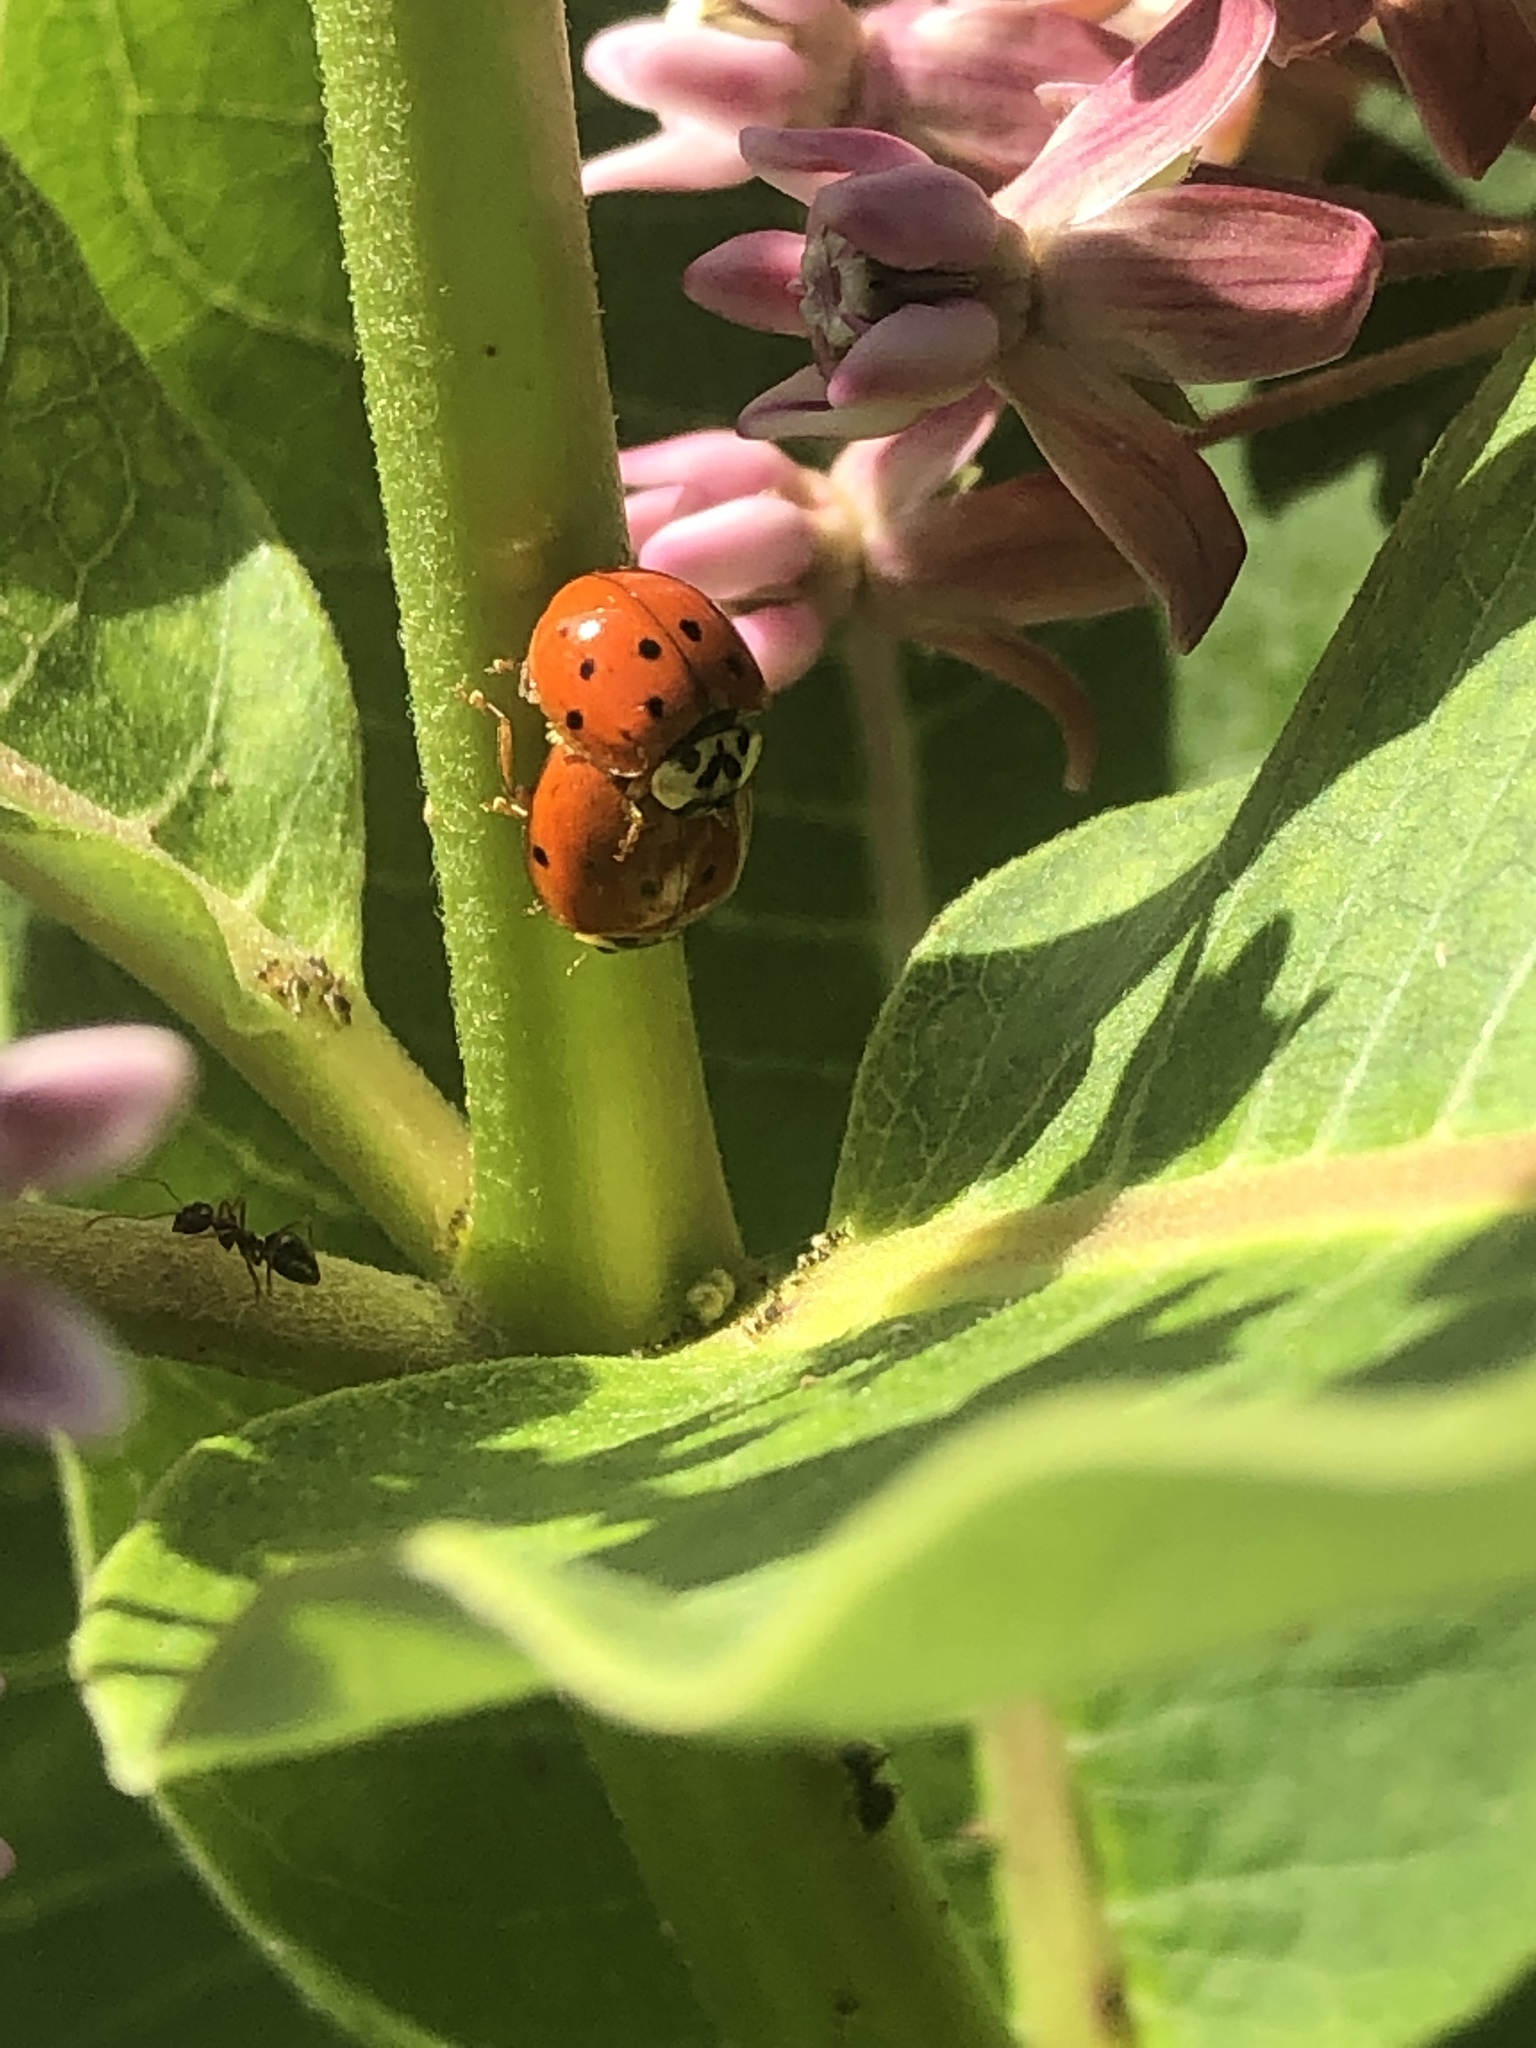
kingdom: Animalia
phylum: Arthropoda
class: Insecta
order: Coleoptera
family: Coccinellidae
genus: Harmonia
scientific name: Harmonia axyridis
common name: Harlequin ladybird
